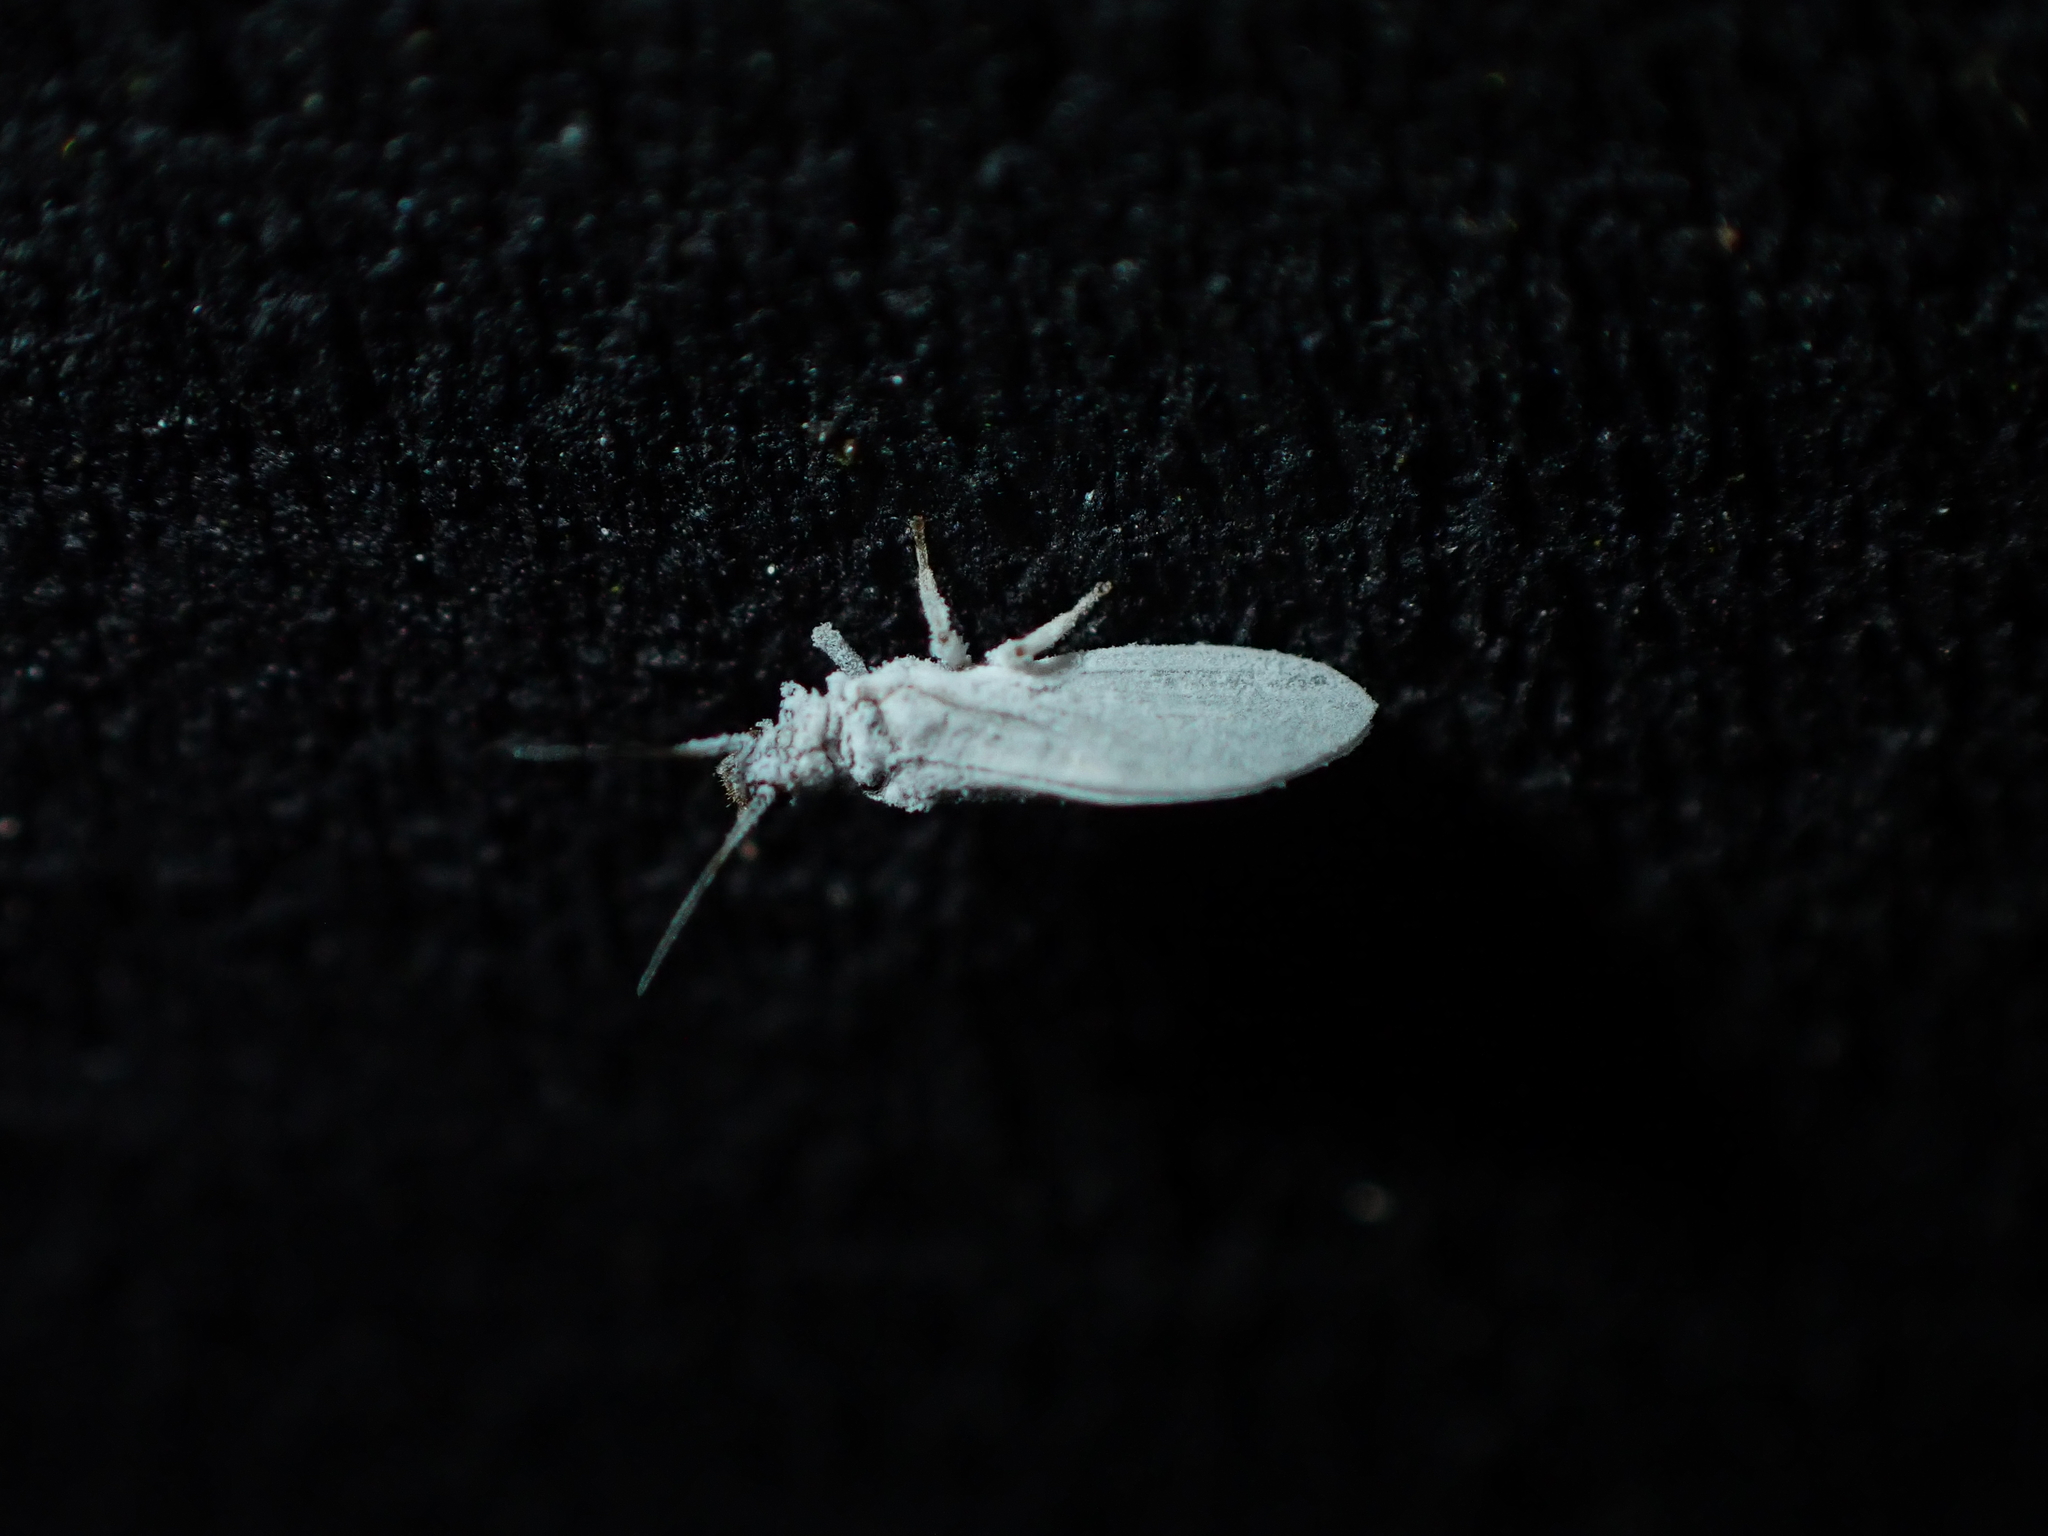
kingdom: Animalia
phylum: Arthropoda
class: Insecta
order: Neuroptera
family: Coniopterygidae
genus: Cryptoscenea
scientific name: Cryptoscenea australiensis
